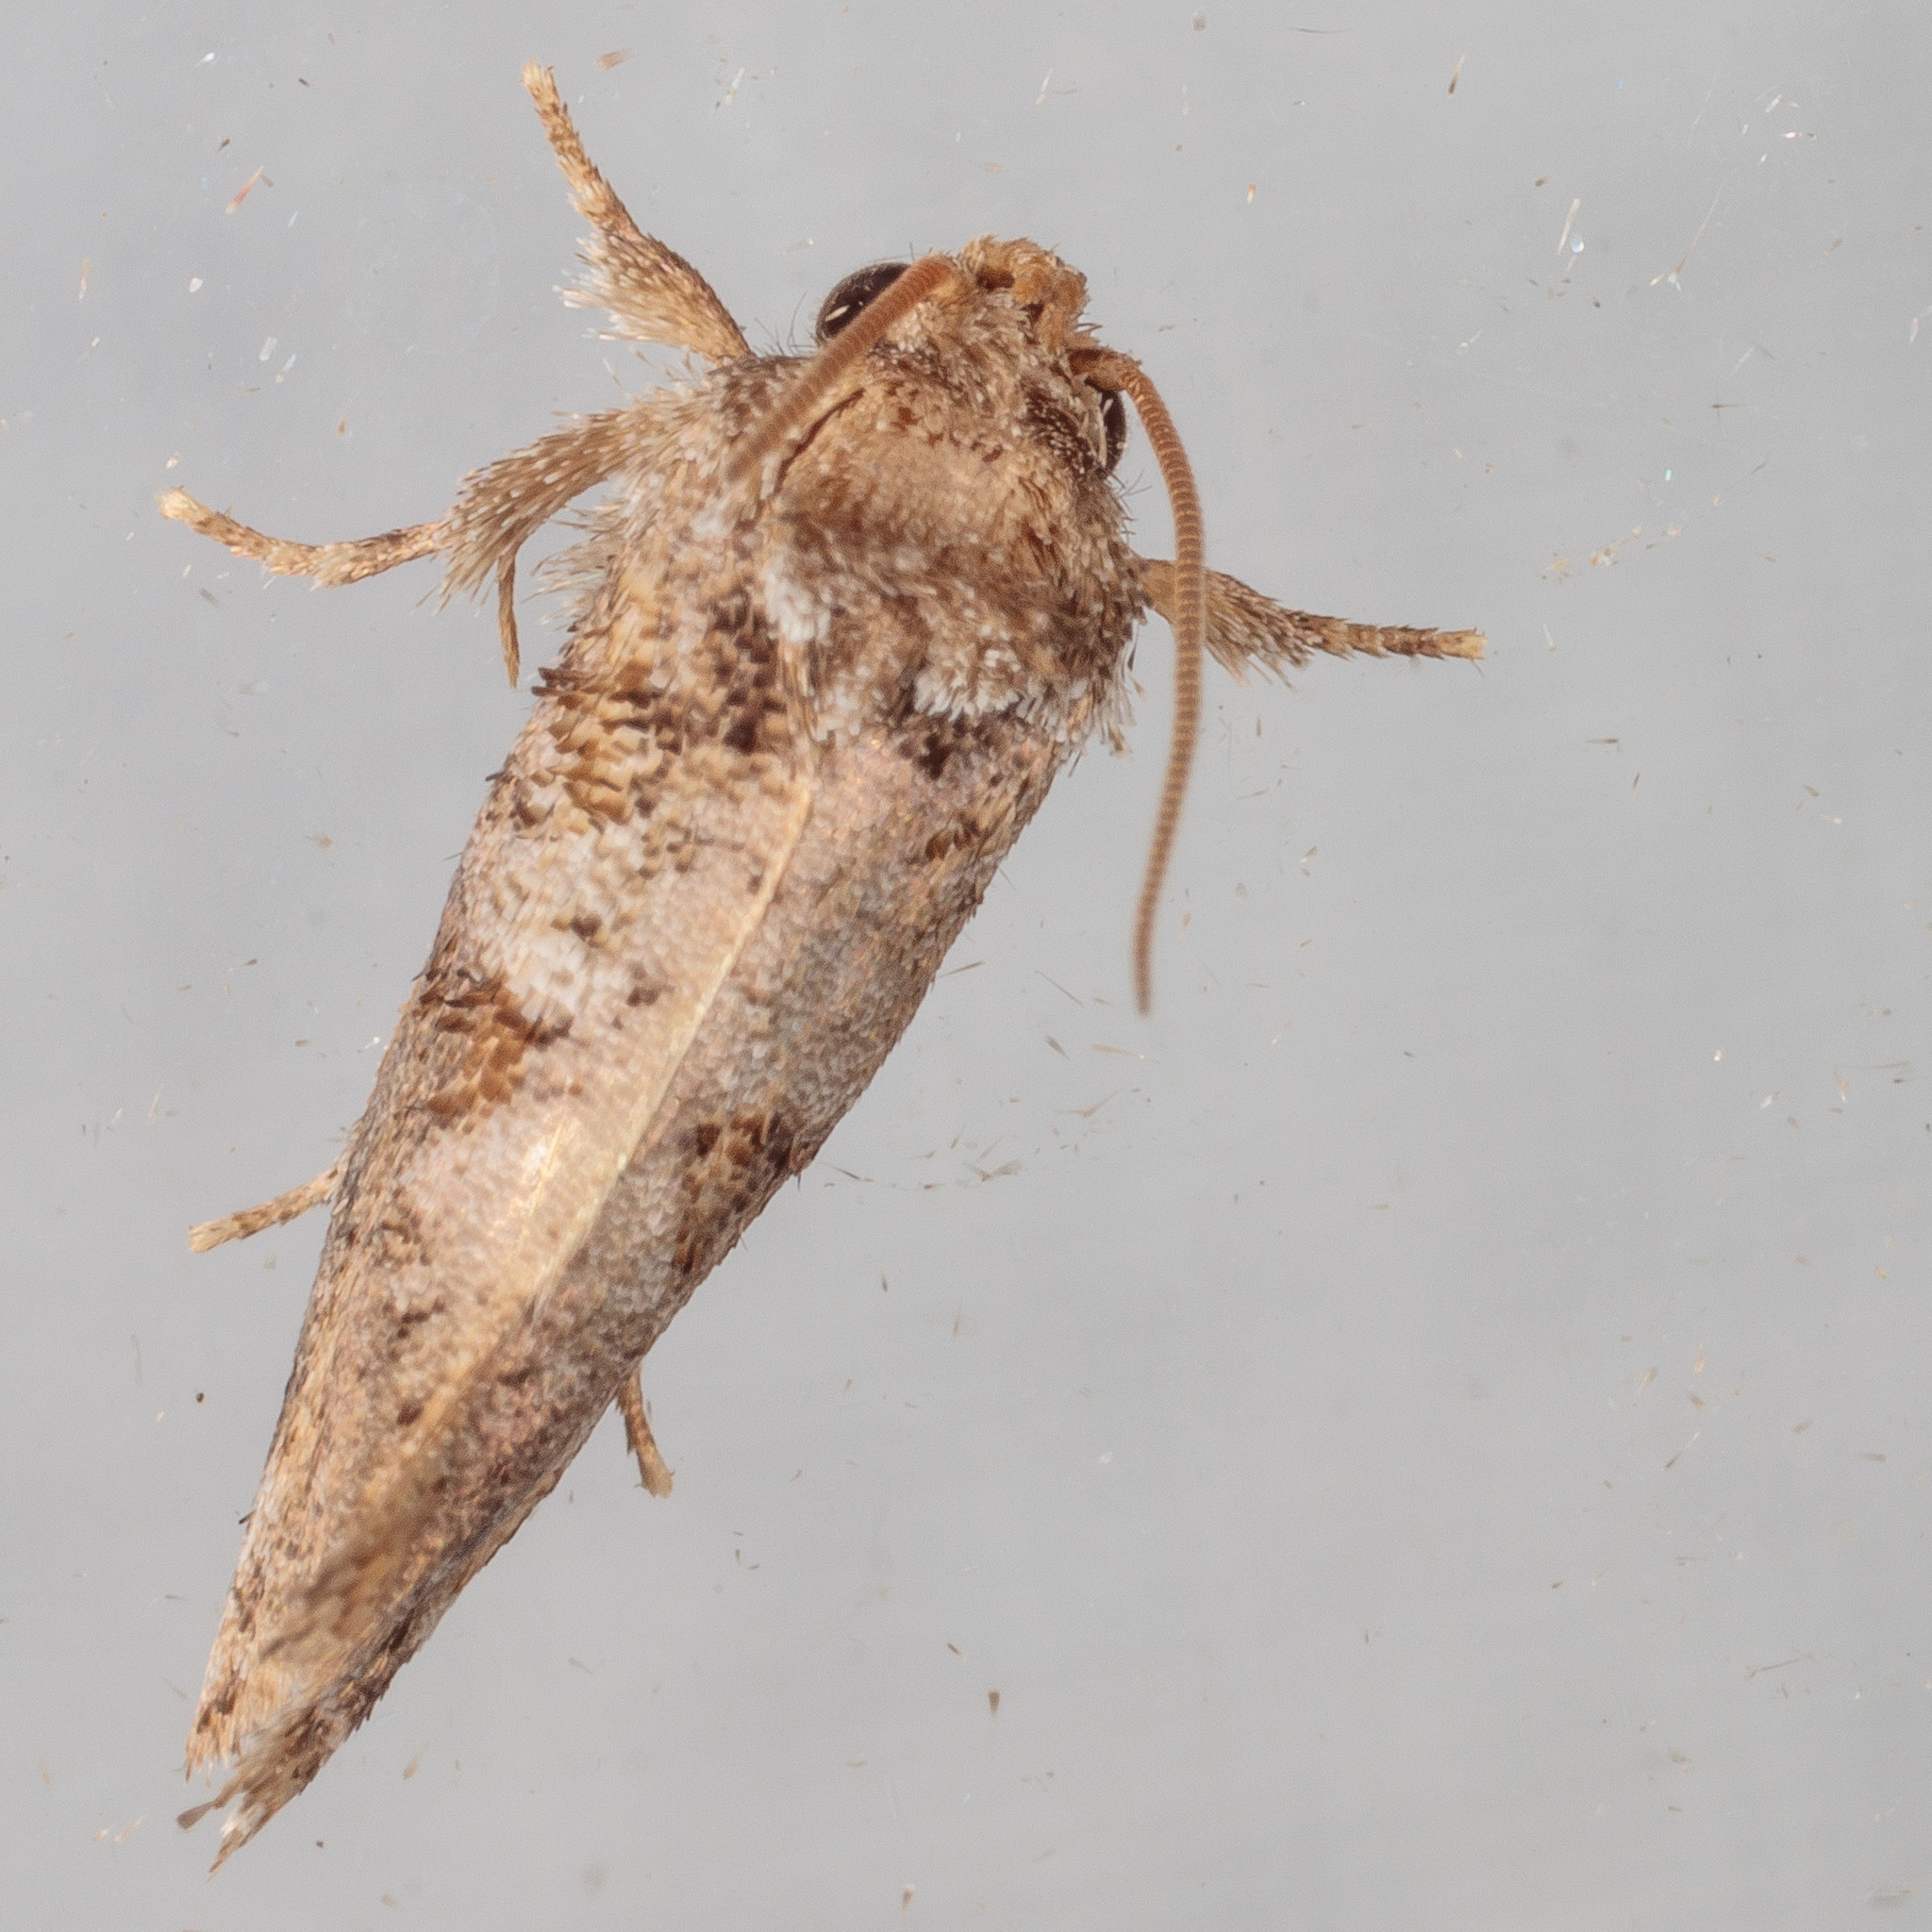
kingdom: Animalia
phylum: Arthropoda
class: Insecta
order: Lepidoptera
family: Tineidae
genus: Acrolophus
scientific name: Acrolophus piger
